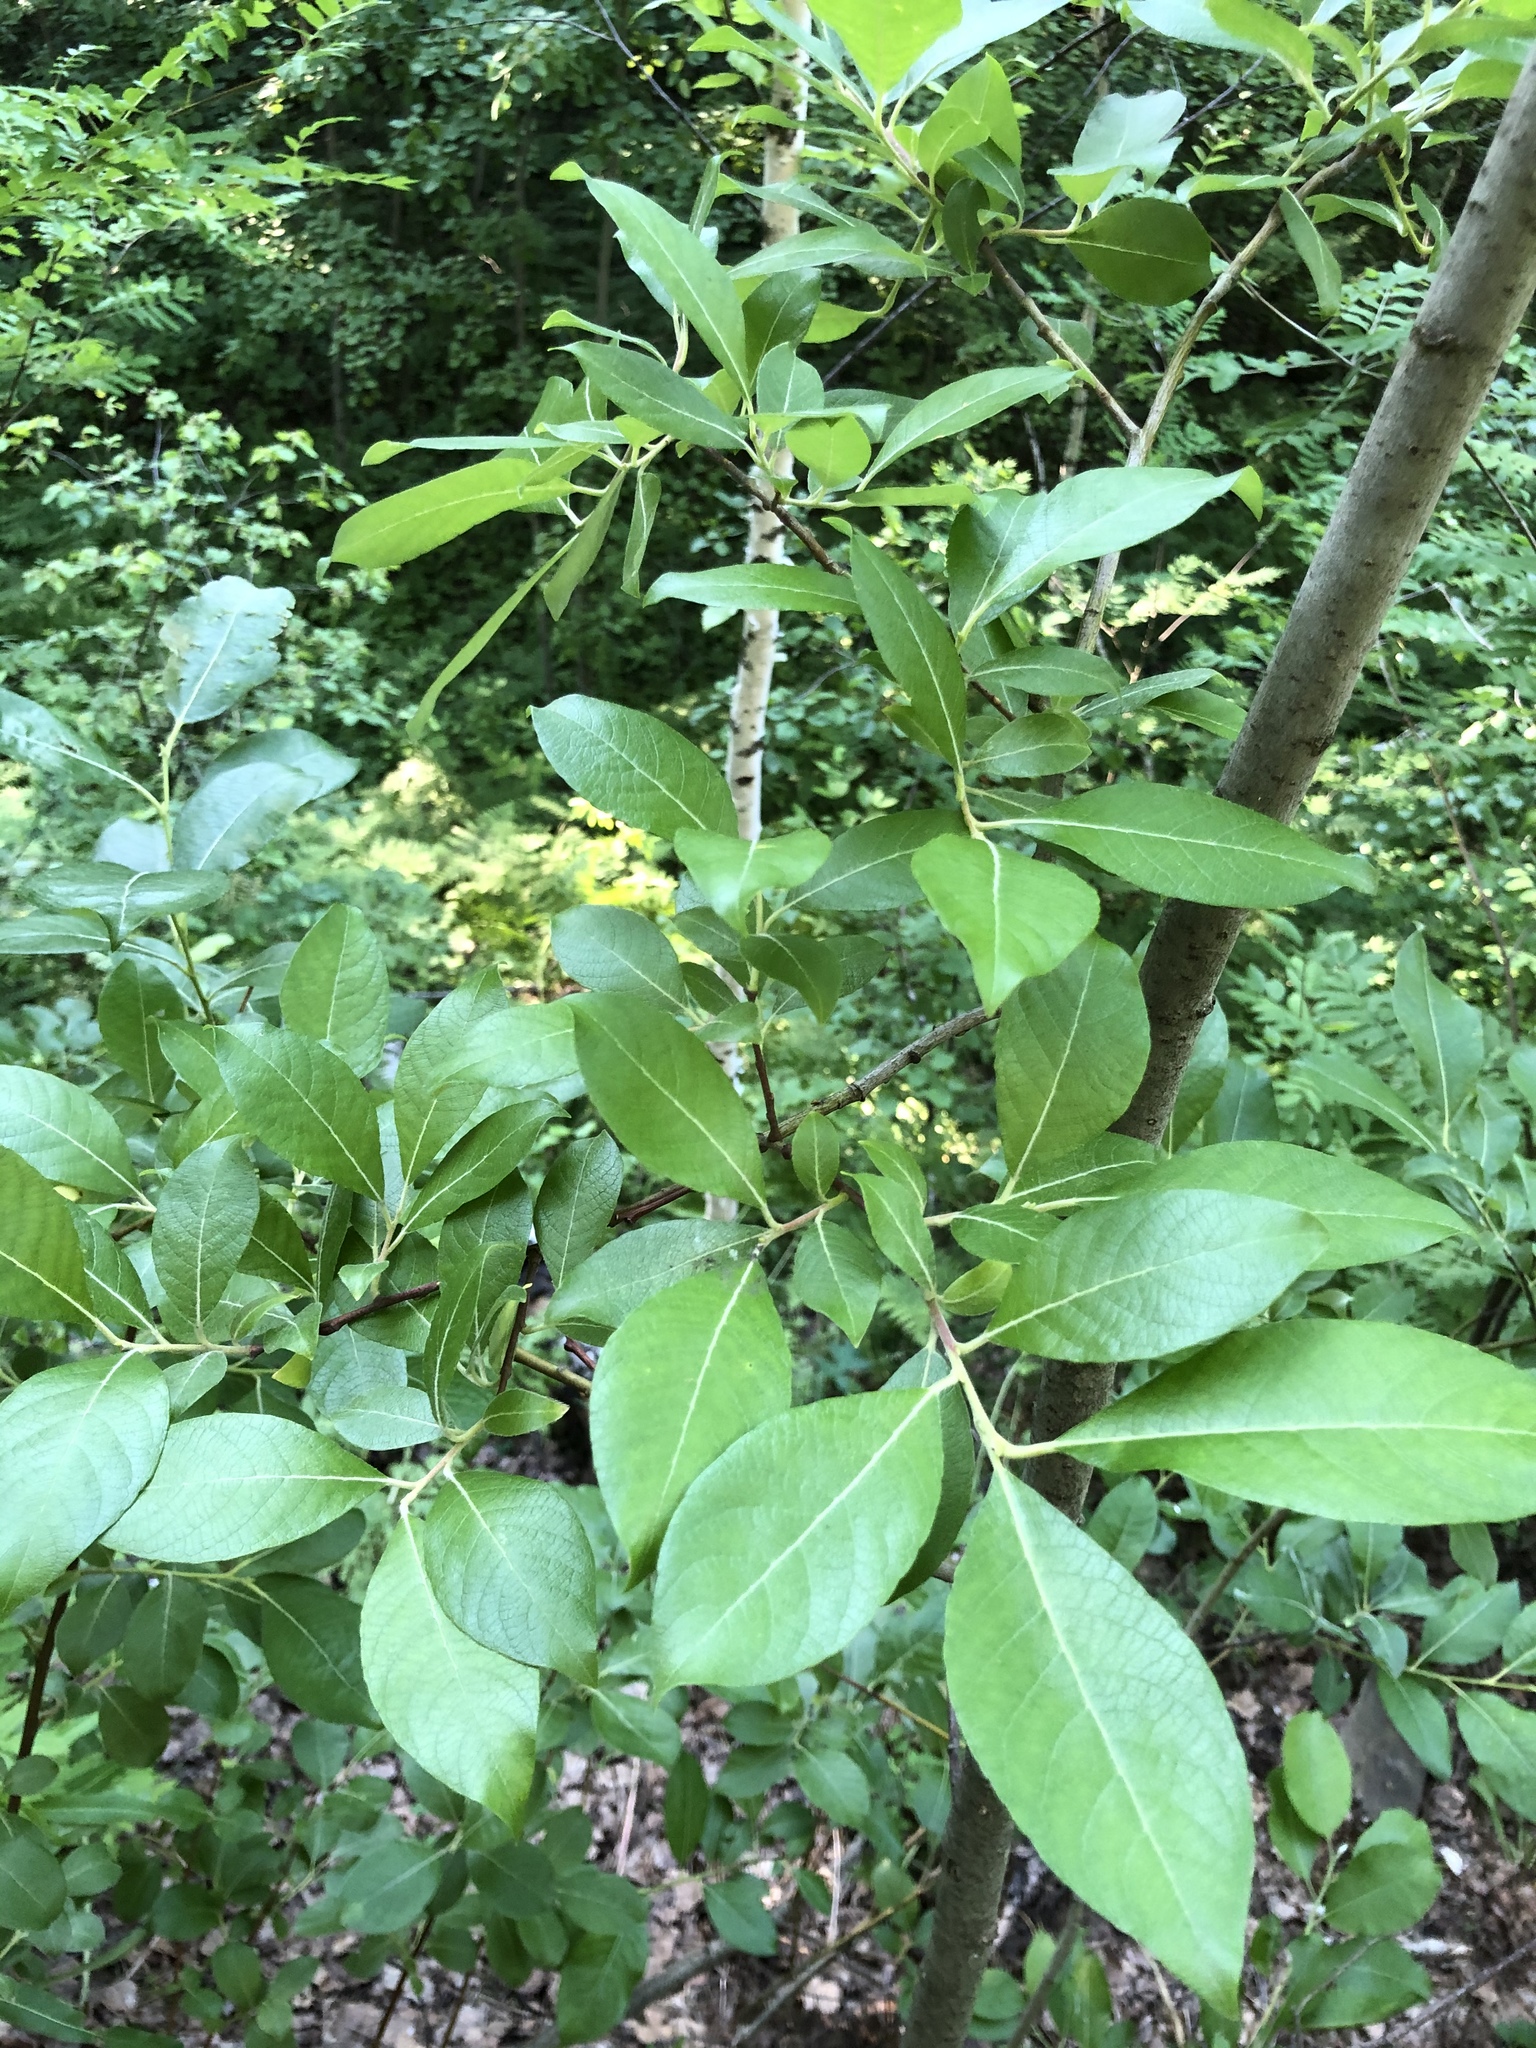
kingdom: Plantae
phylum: Tracheophyta
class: Magnoliopsida
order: Malpighiales
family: Salicaceae
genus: Salix
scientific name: Salix caprea
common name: Goat willow
